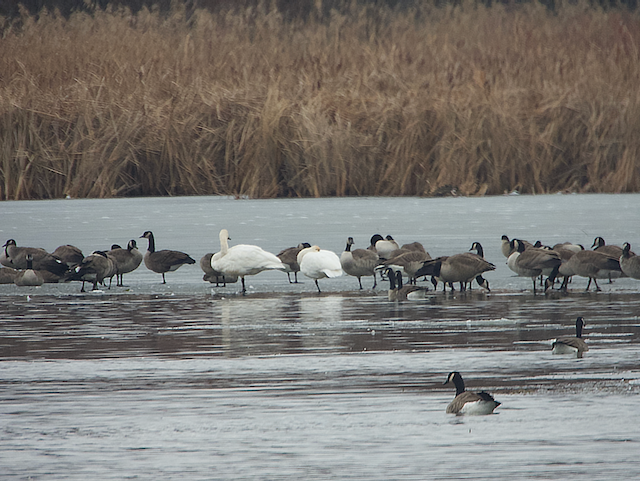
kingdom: Animalia
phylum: Chordata
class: Aves
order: Anseriformes
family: Anatidae
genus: Cygnus
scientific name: Cygnus buccinator
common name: Trumpeter swan
